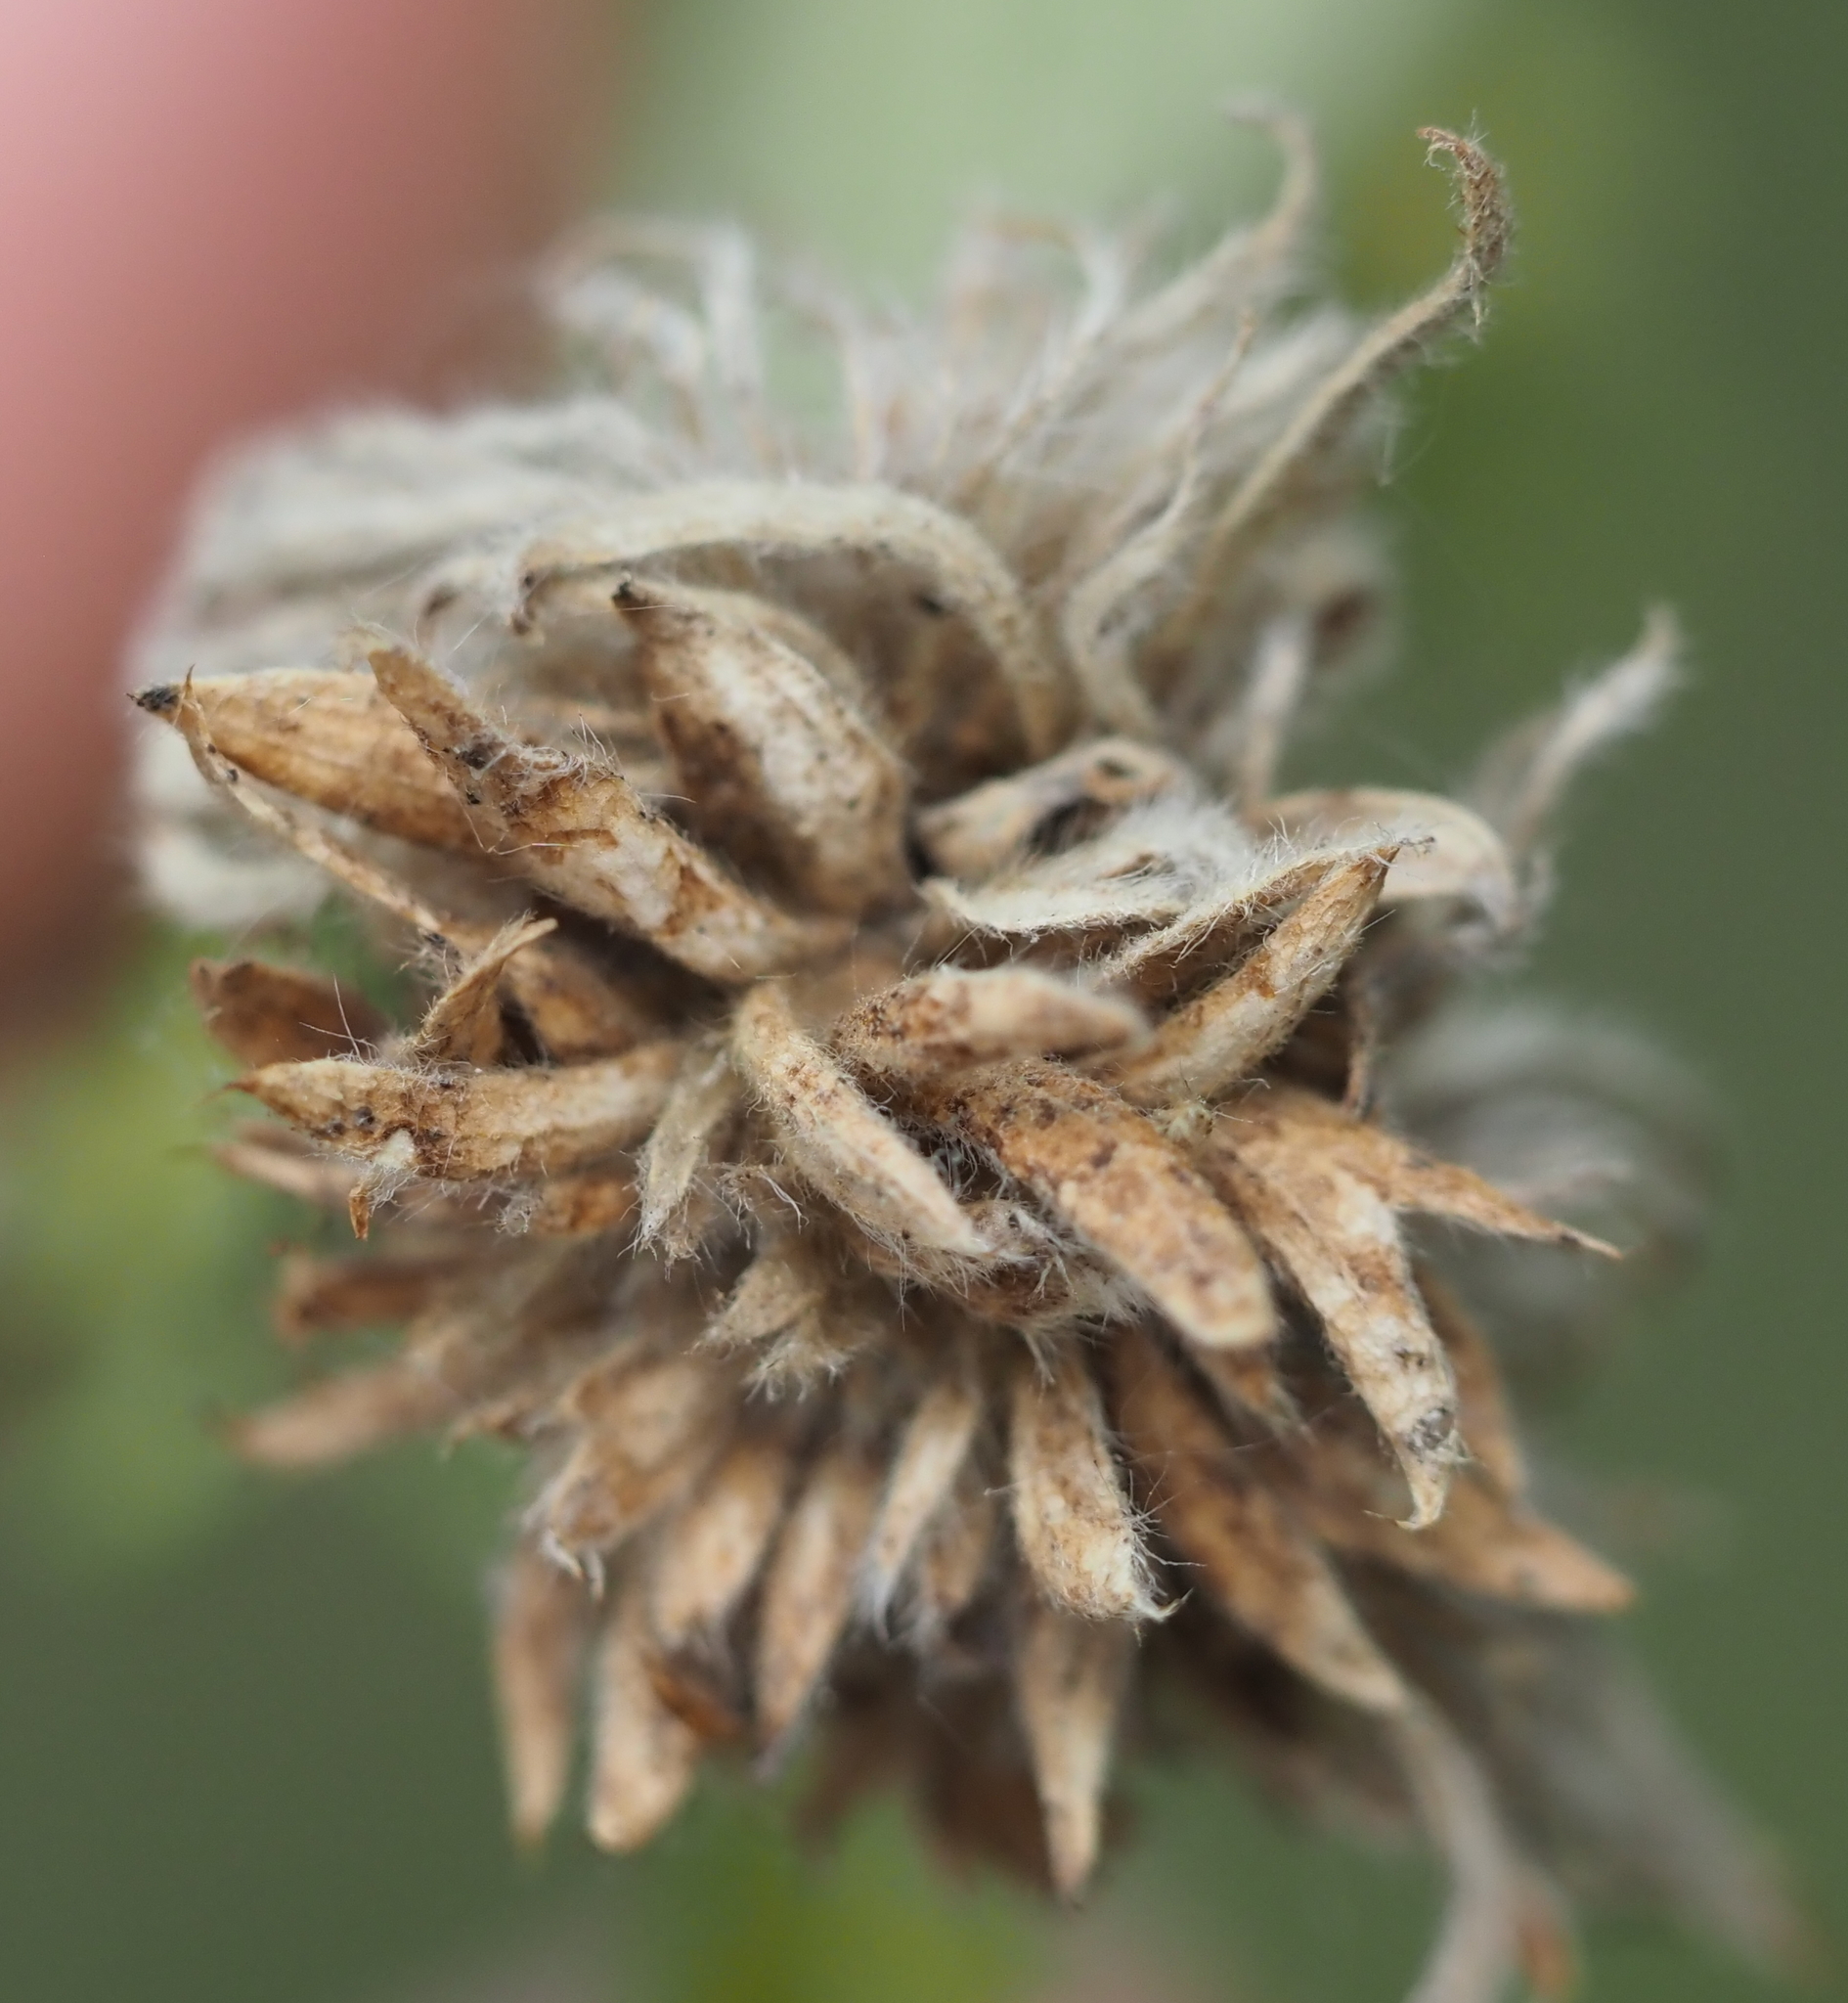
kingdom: Animalia
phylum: Arthropoda
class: Insecta
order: Hymenoptera
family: Cynipidae
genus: Andricus
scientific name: Andricus
